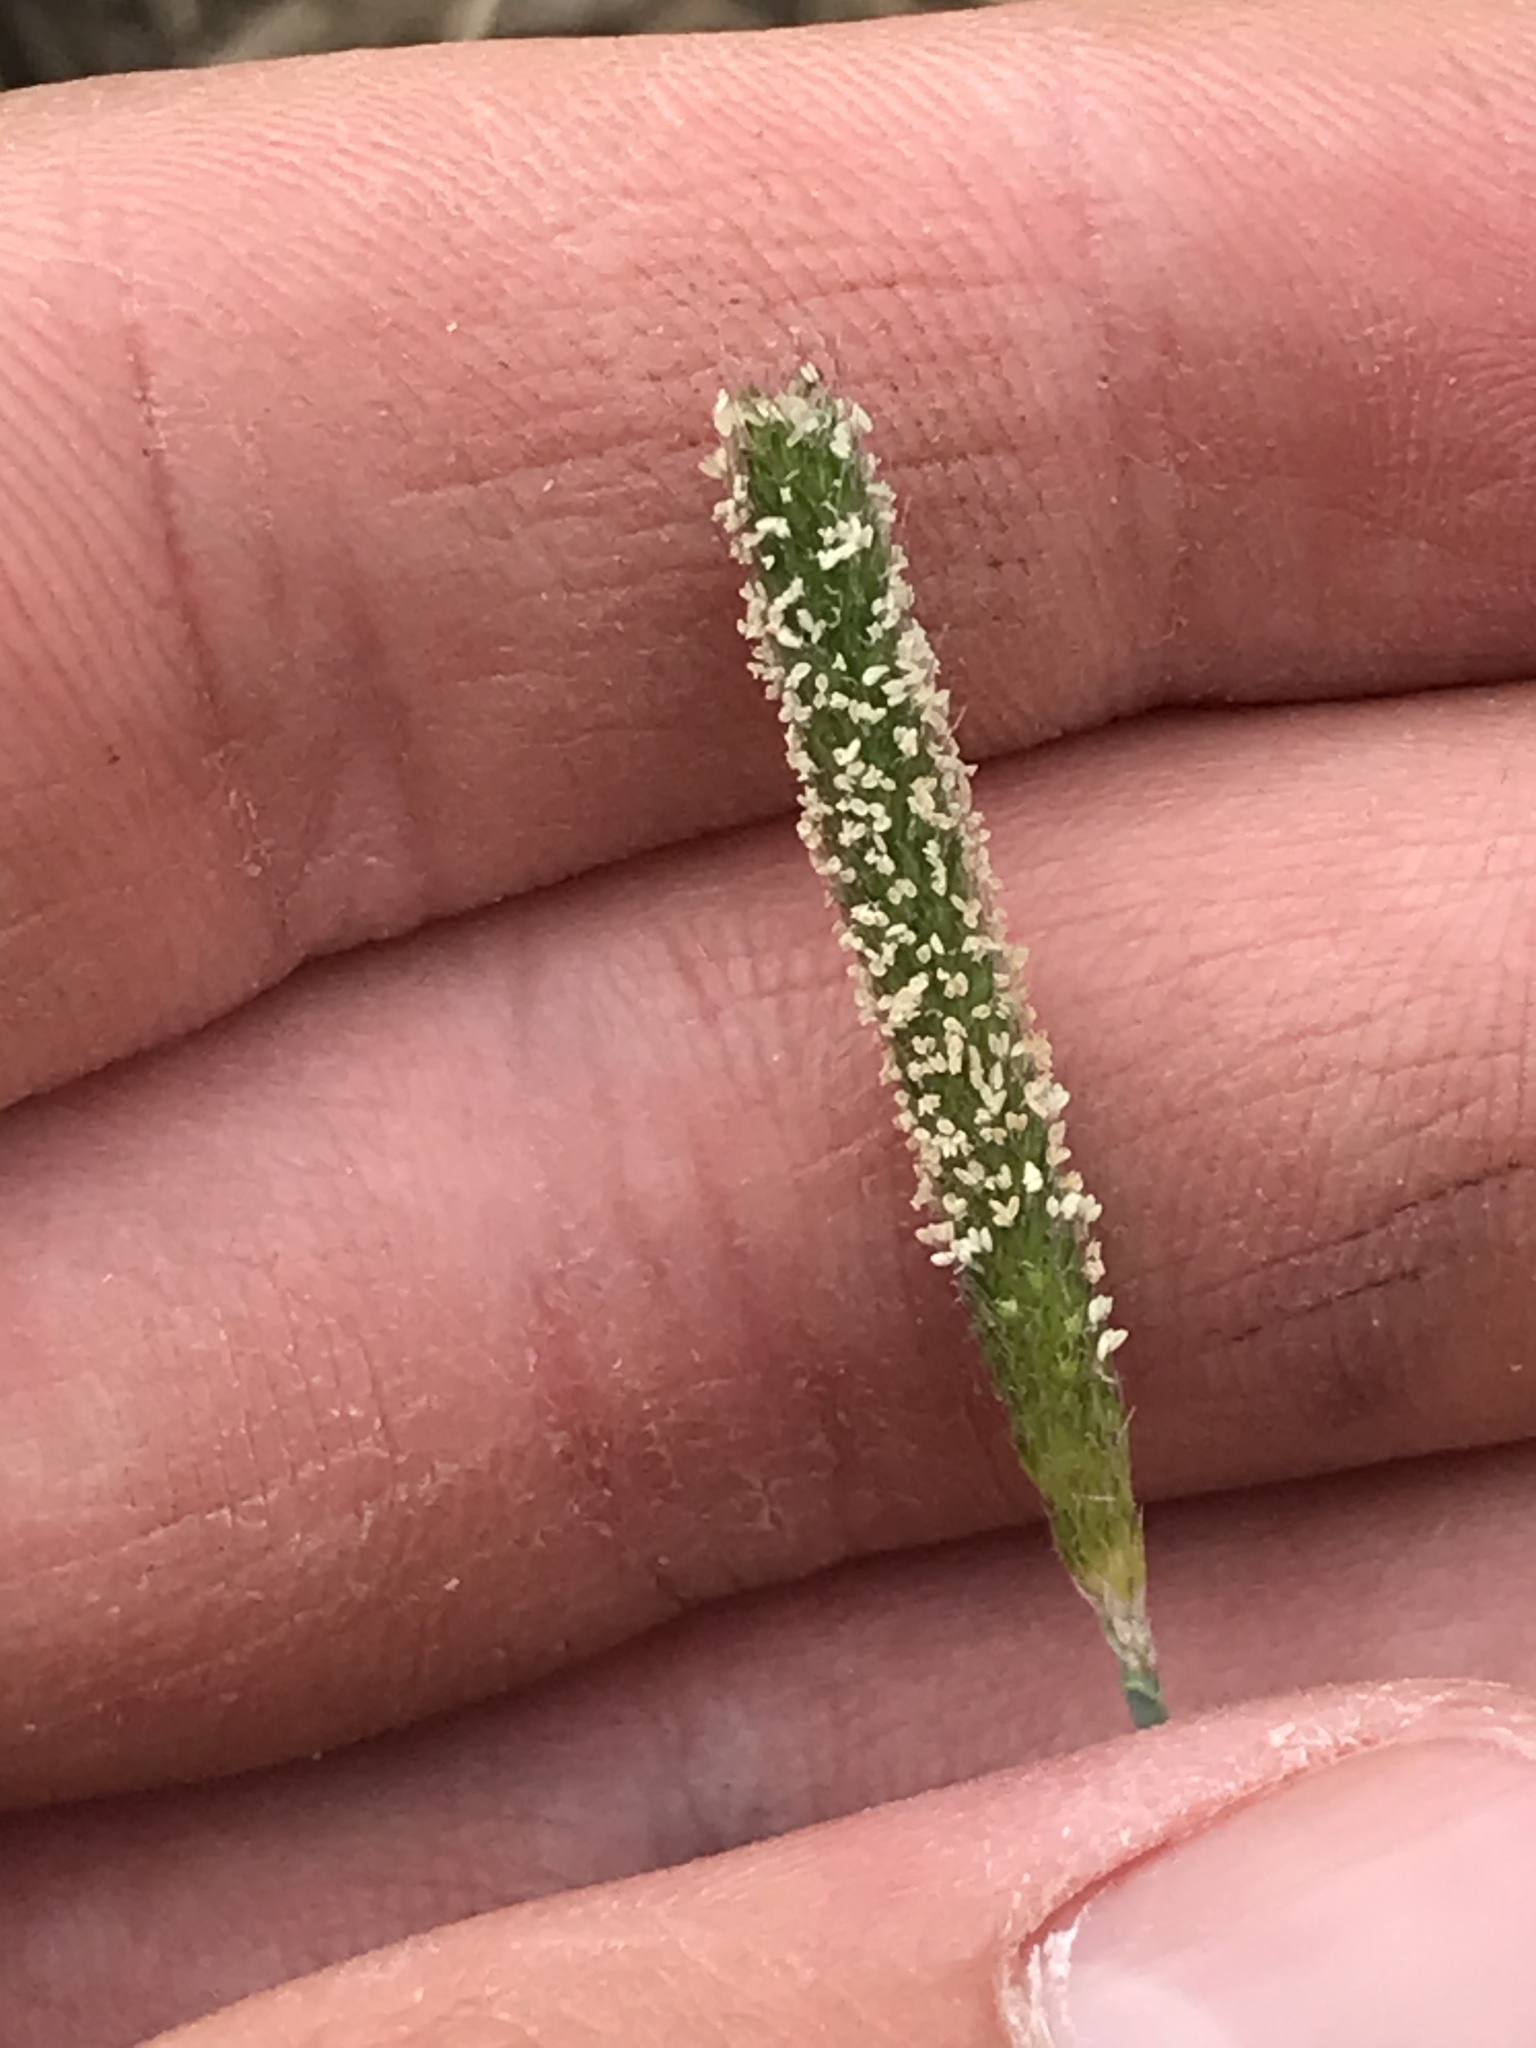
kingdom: Plantae
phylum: Tracheophyta
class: Liliopsida
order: Poales
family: Poaceae
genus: Alopecurus
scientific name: Alopecurus carolinianus
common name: Tufted foxtail
